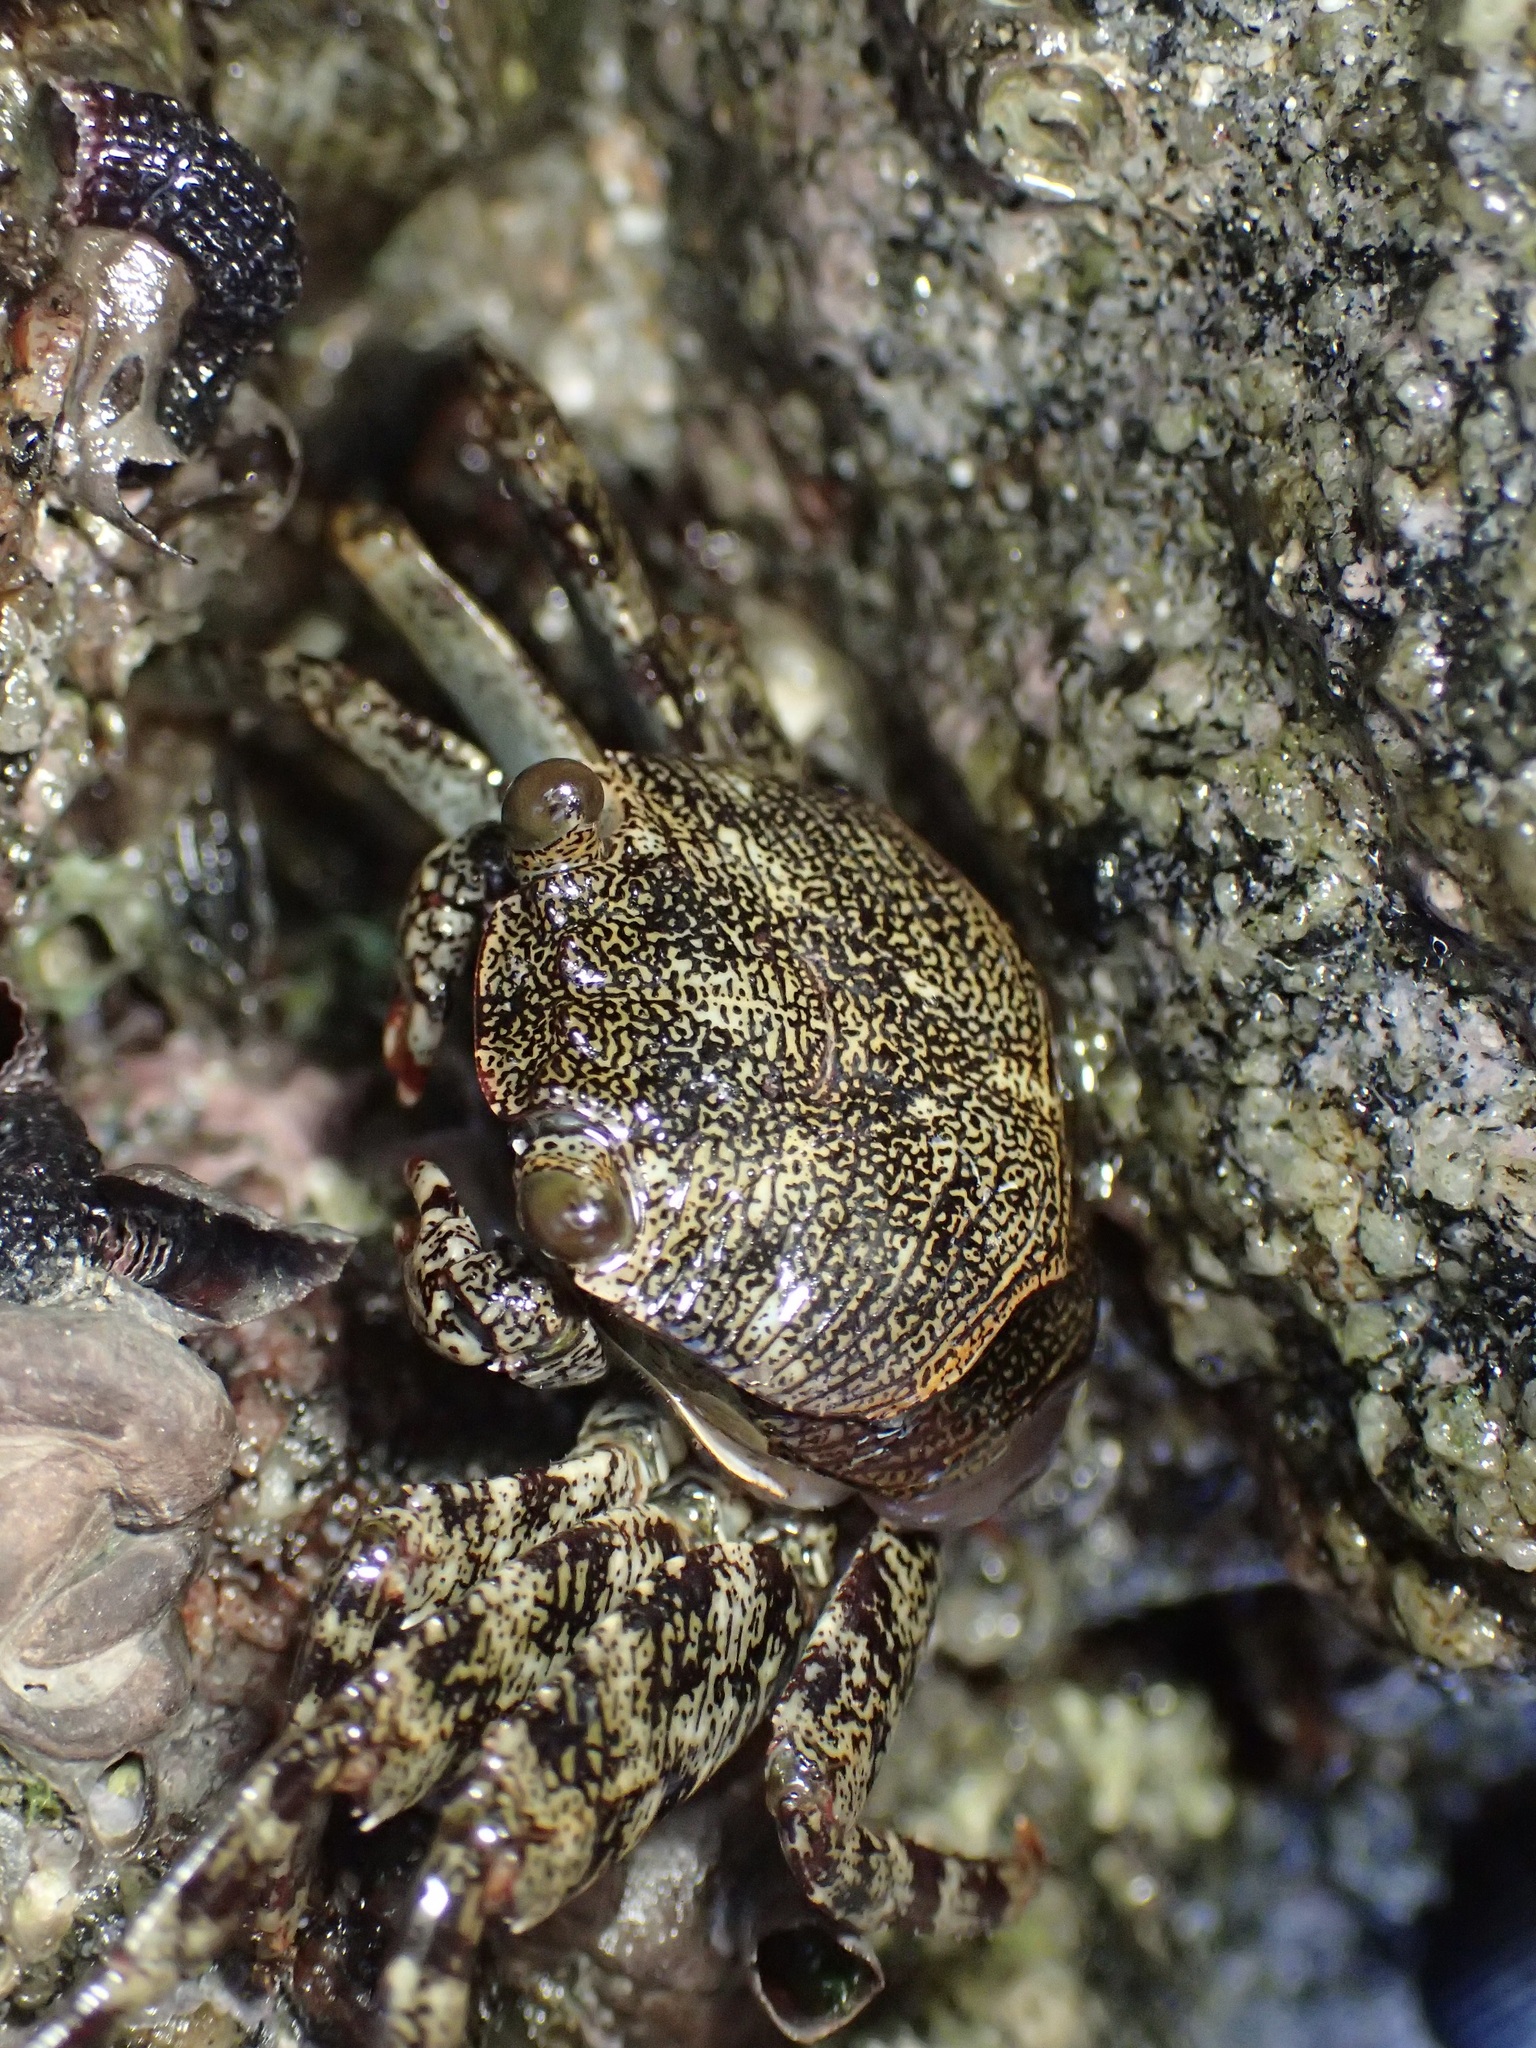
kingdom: Animalia
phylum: Arthropoda
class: Malacostraca
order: Decapoda
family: Grapsidae
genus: Grapsus
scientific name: Grapsus grapsus
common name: Sally lightfoot
